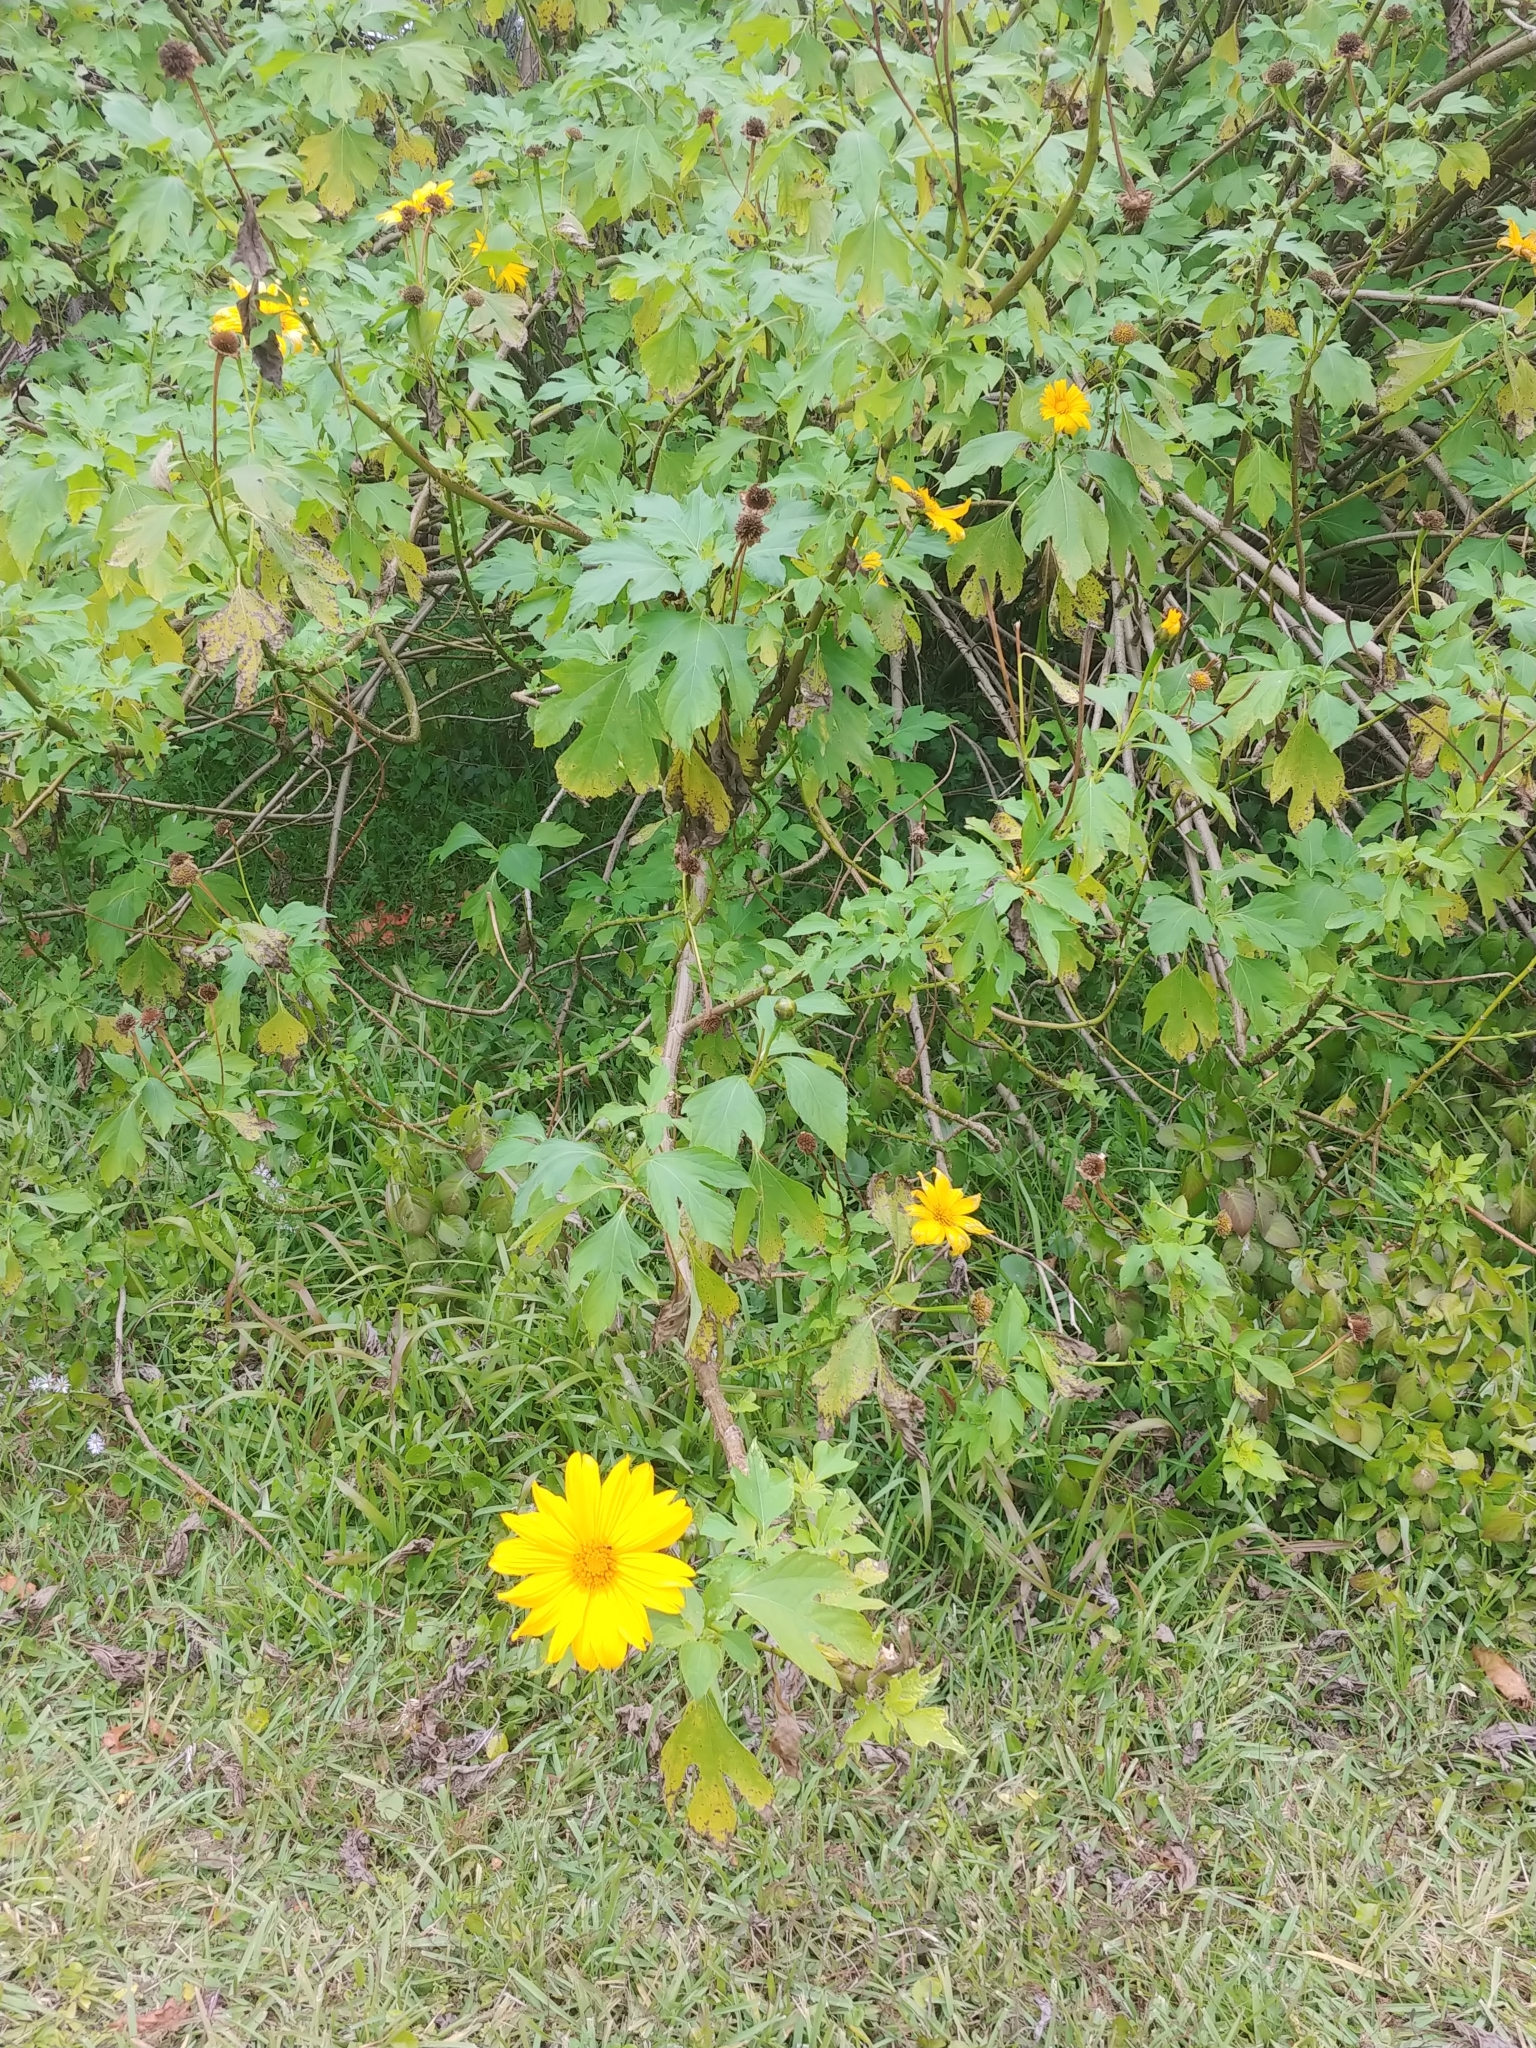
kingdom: Plantae
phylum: Tracheophyta
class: Magnoliopsida
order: Asterales
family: Asteraceae
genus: Tithonia
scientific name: Tithonia diversifolia
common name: Tree marigold
